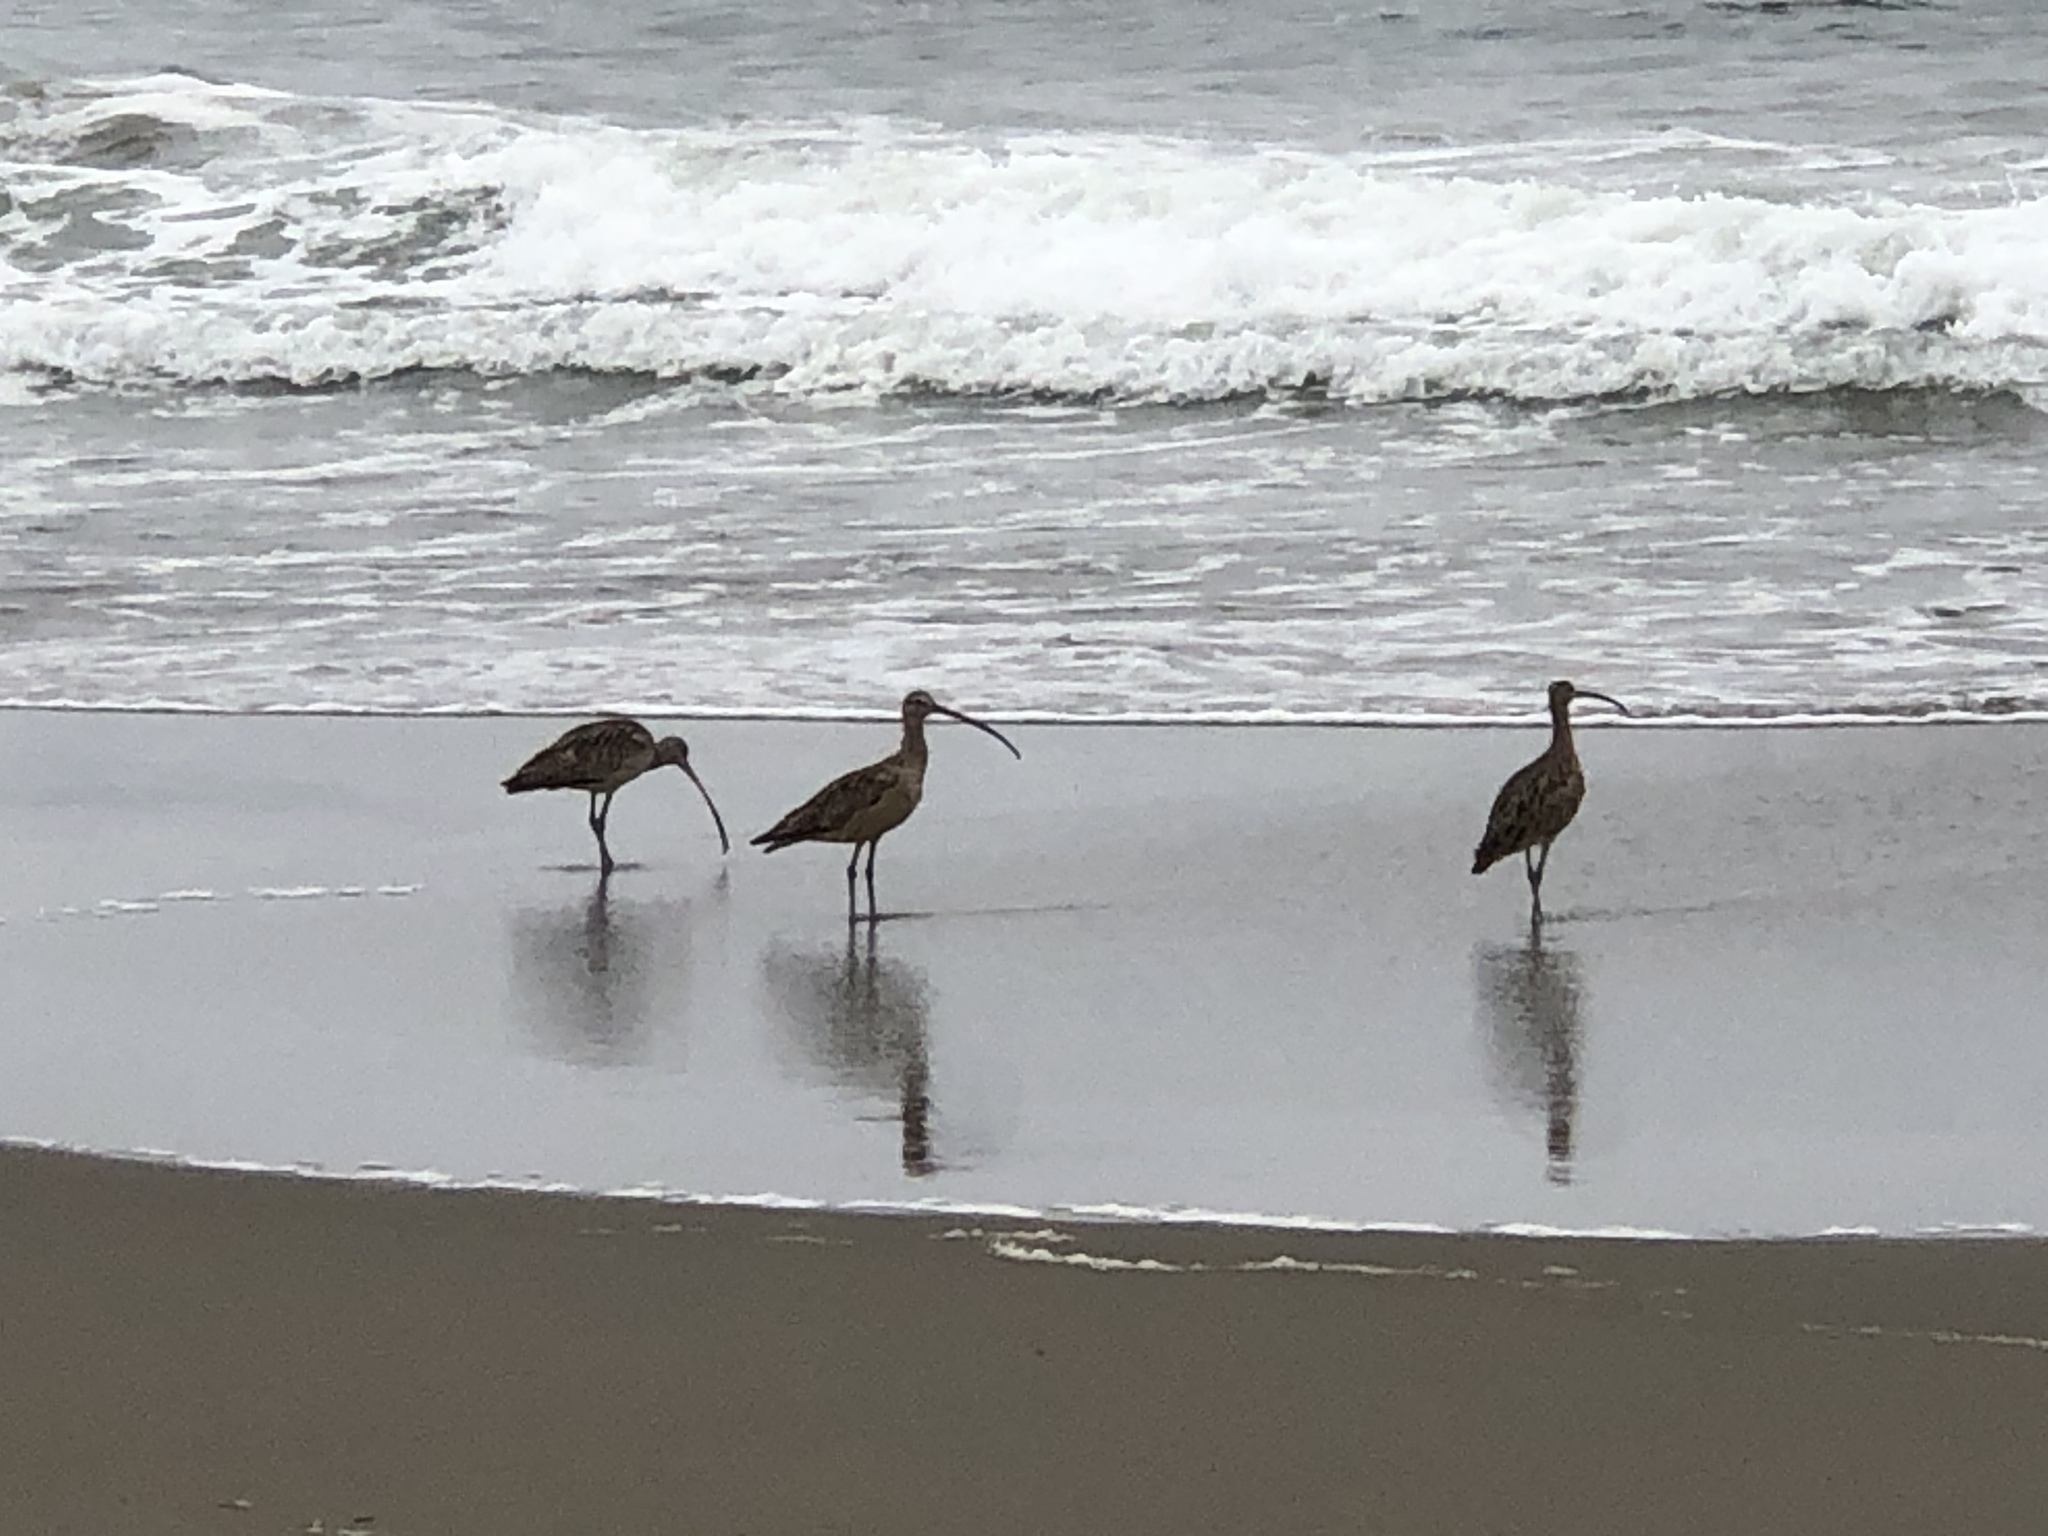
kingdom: Animalia
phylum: Chordata
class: Aves
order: Charadriiformes
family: Scolopacidae
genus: Numenius
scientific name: Numenius americanus
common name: Long-billed curlew
